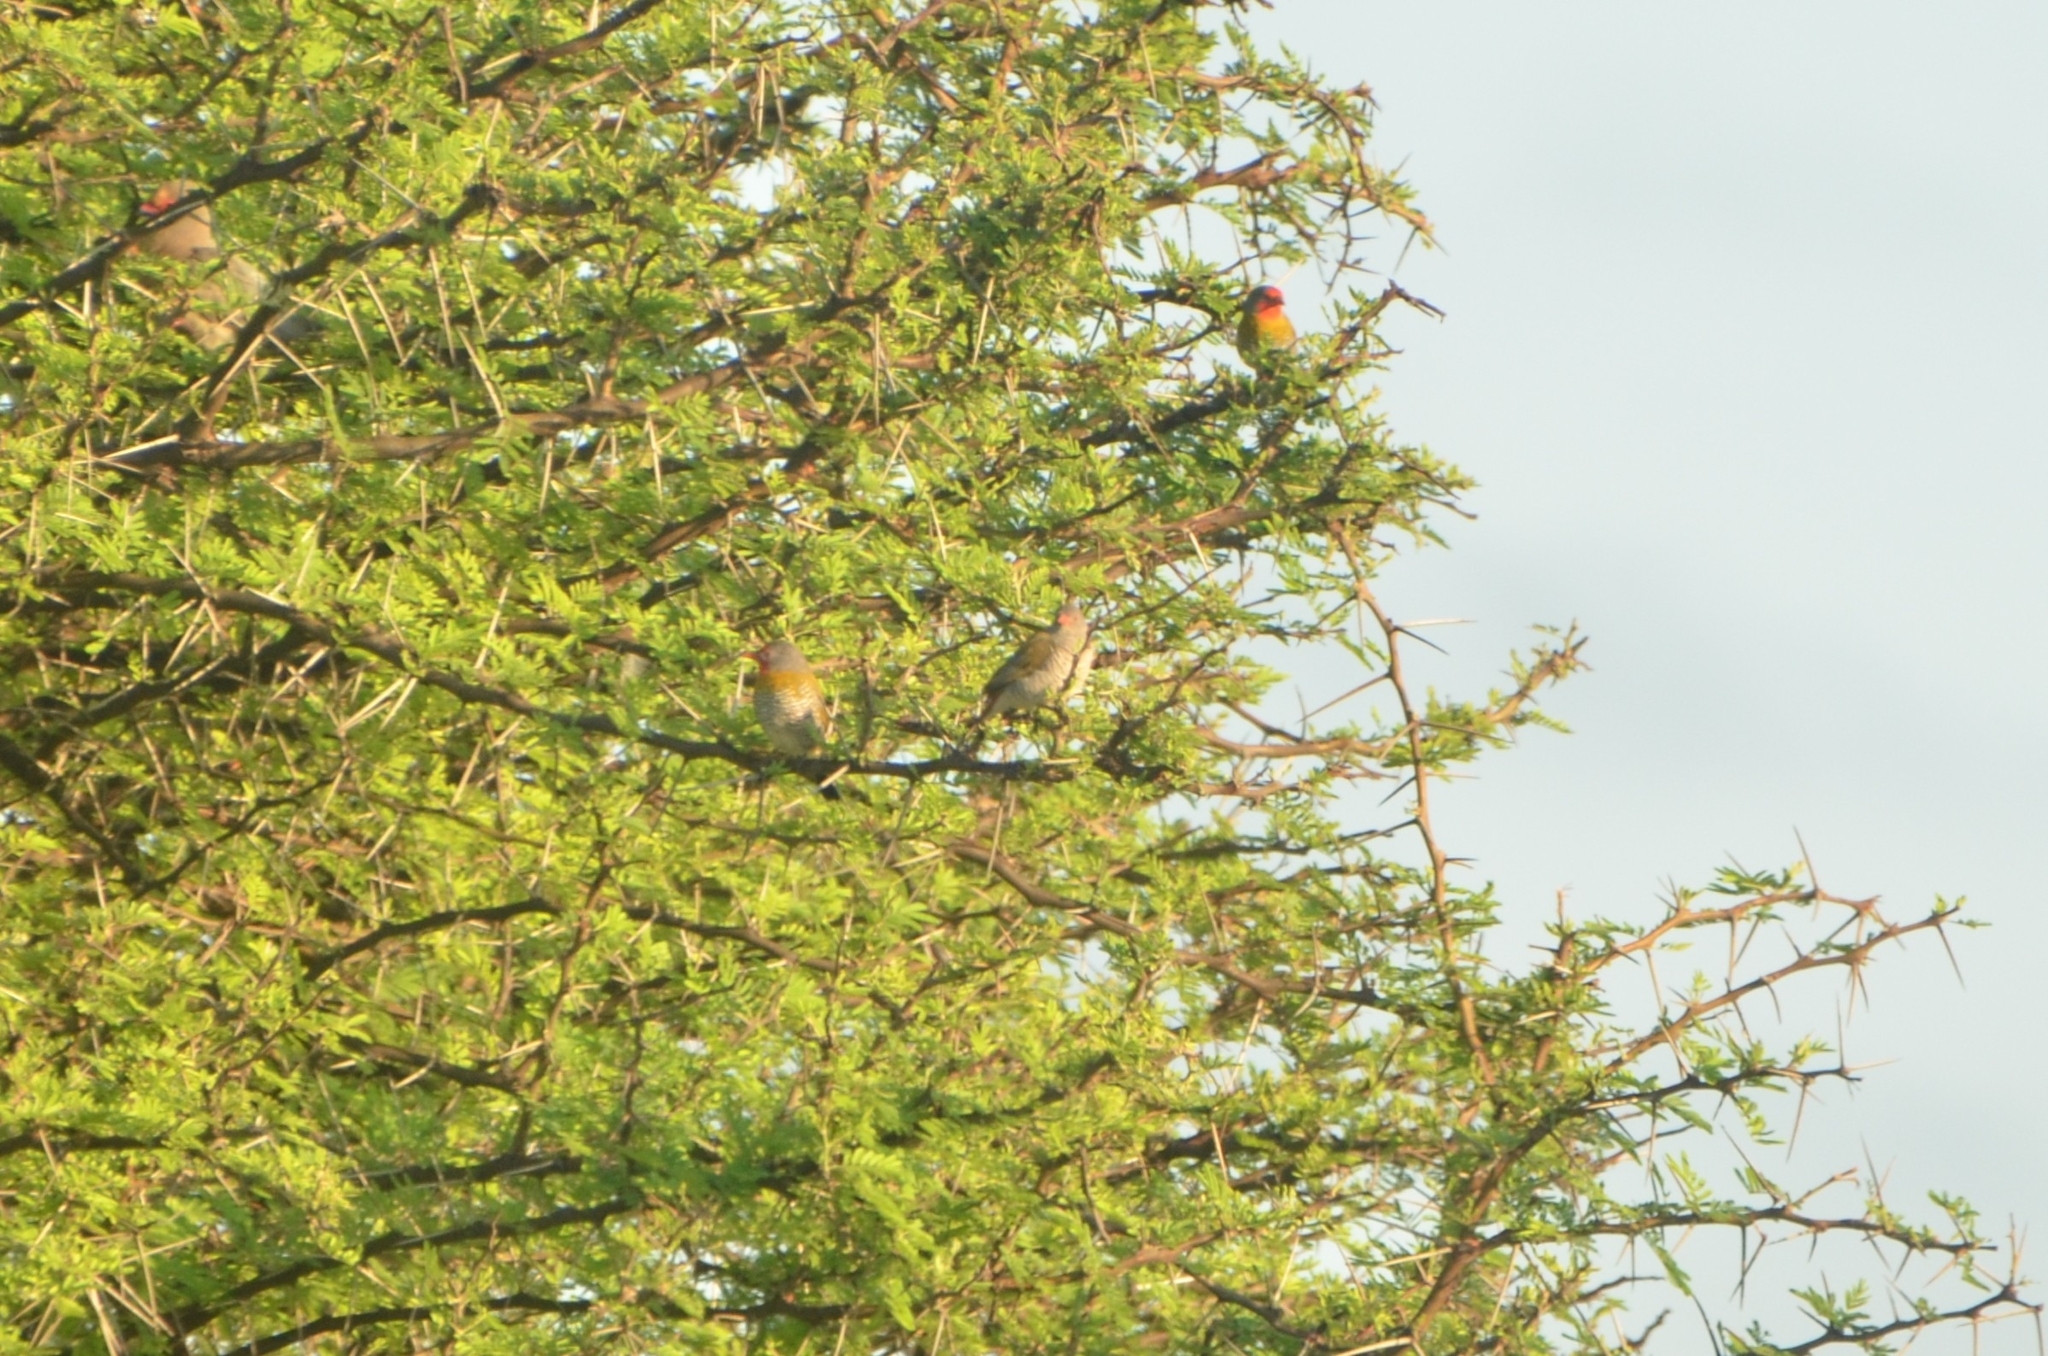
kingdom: Animalia
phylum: Chordata
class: Aves
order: Passeriformes
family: Estrildidae
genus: Pytilia
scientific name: Pytilia melba
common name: Green-winged pytilia
